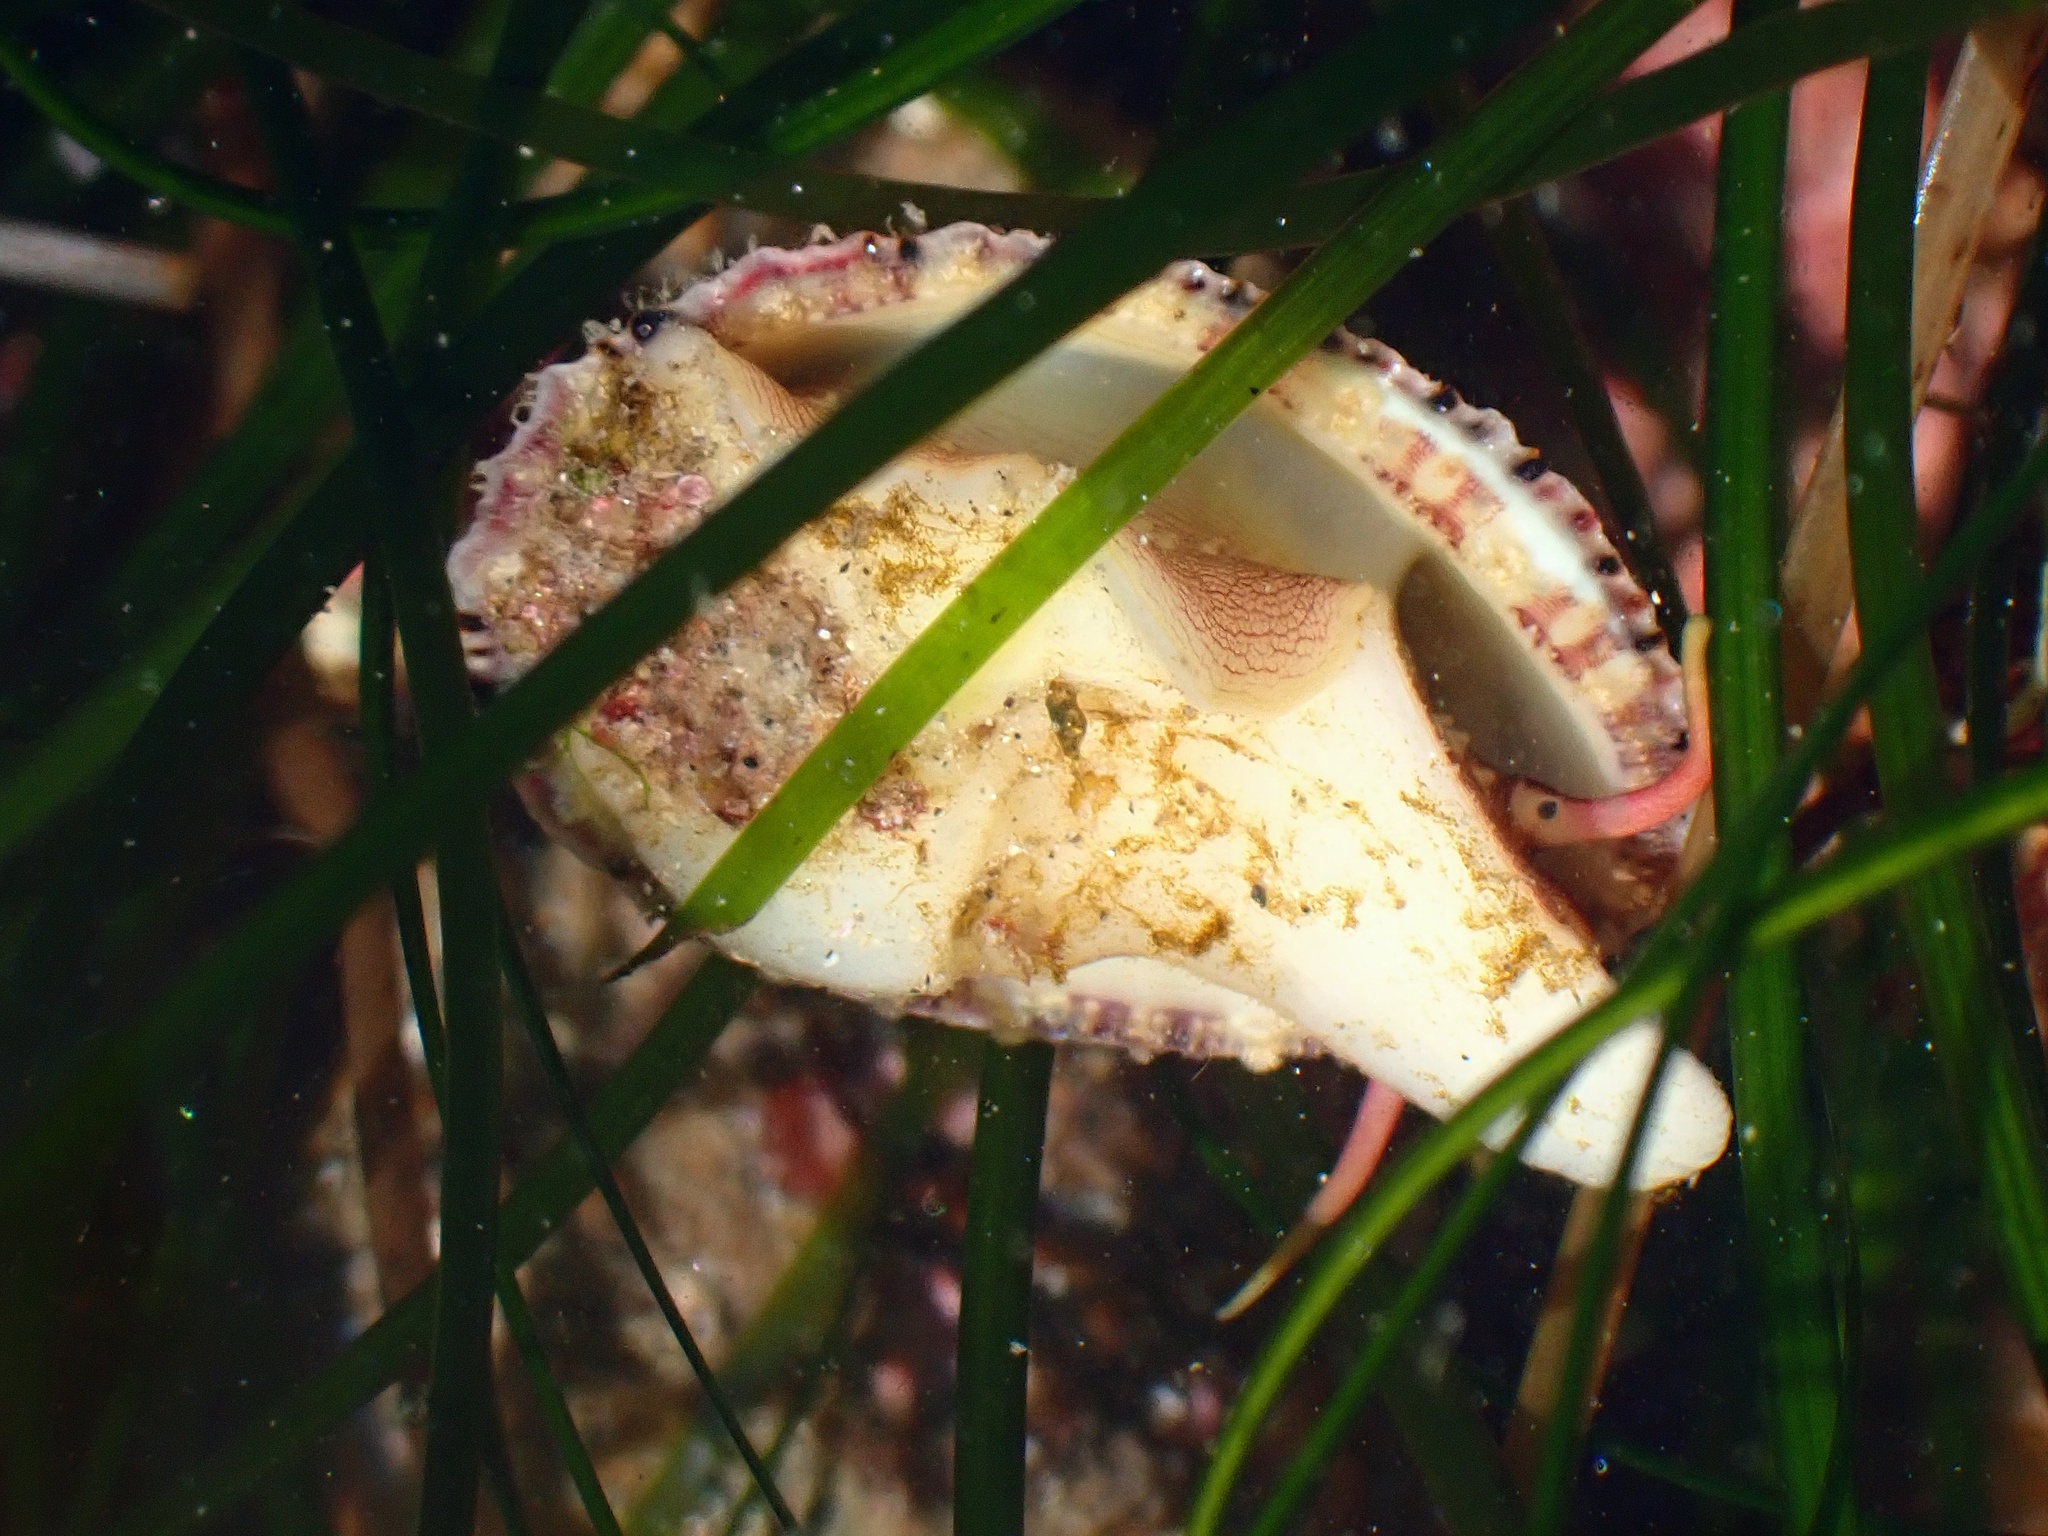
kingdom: Animalia
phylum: Mollusca
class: Gastropoda
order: Lepetellida
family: Fissurellidae
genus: Diodora
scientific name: Diodora aspera
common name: Rough keyhole limpet
